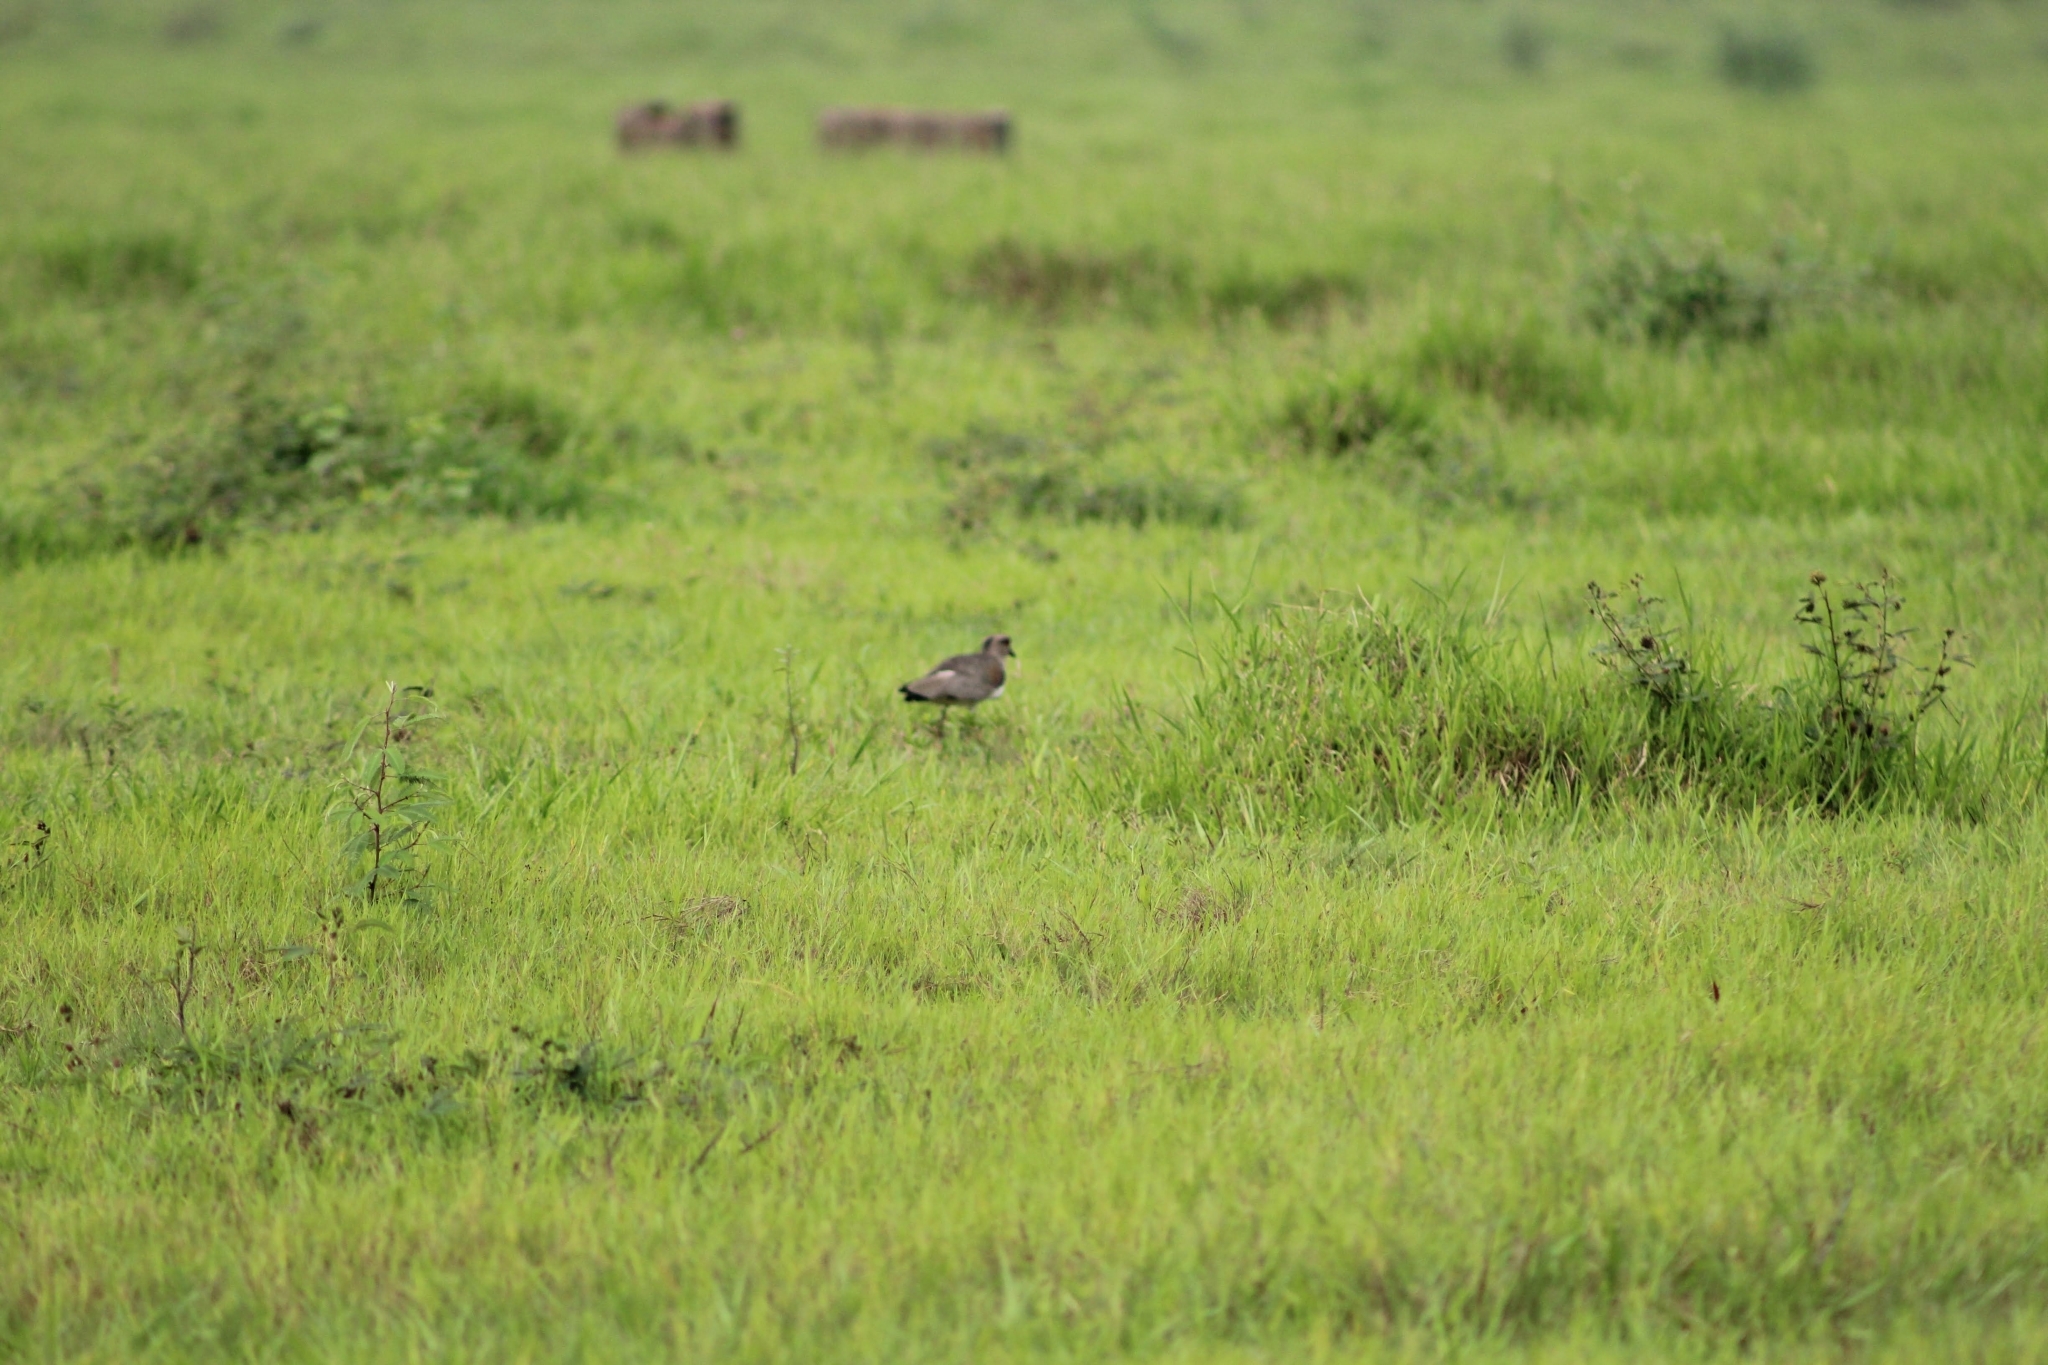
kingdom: Animalia
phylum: Chordata
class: Aves
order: Charadriiformes
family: Charadriidae
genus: Vanellus
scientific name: Vanellus chilensis
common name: Southern lapwing
